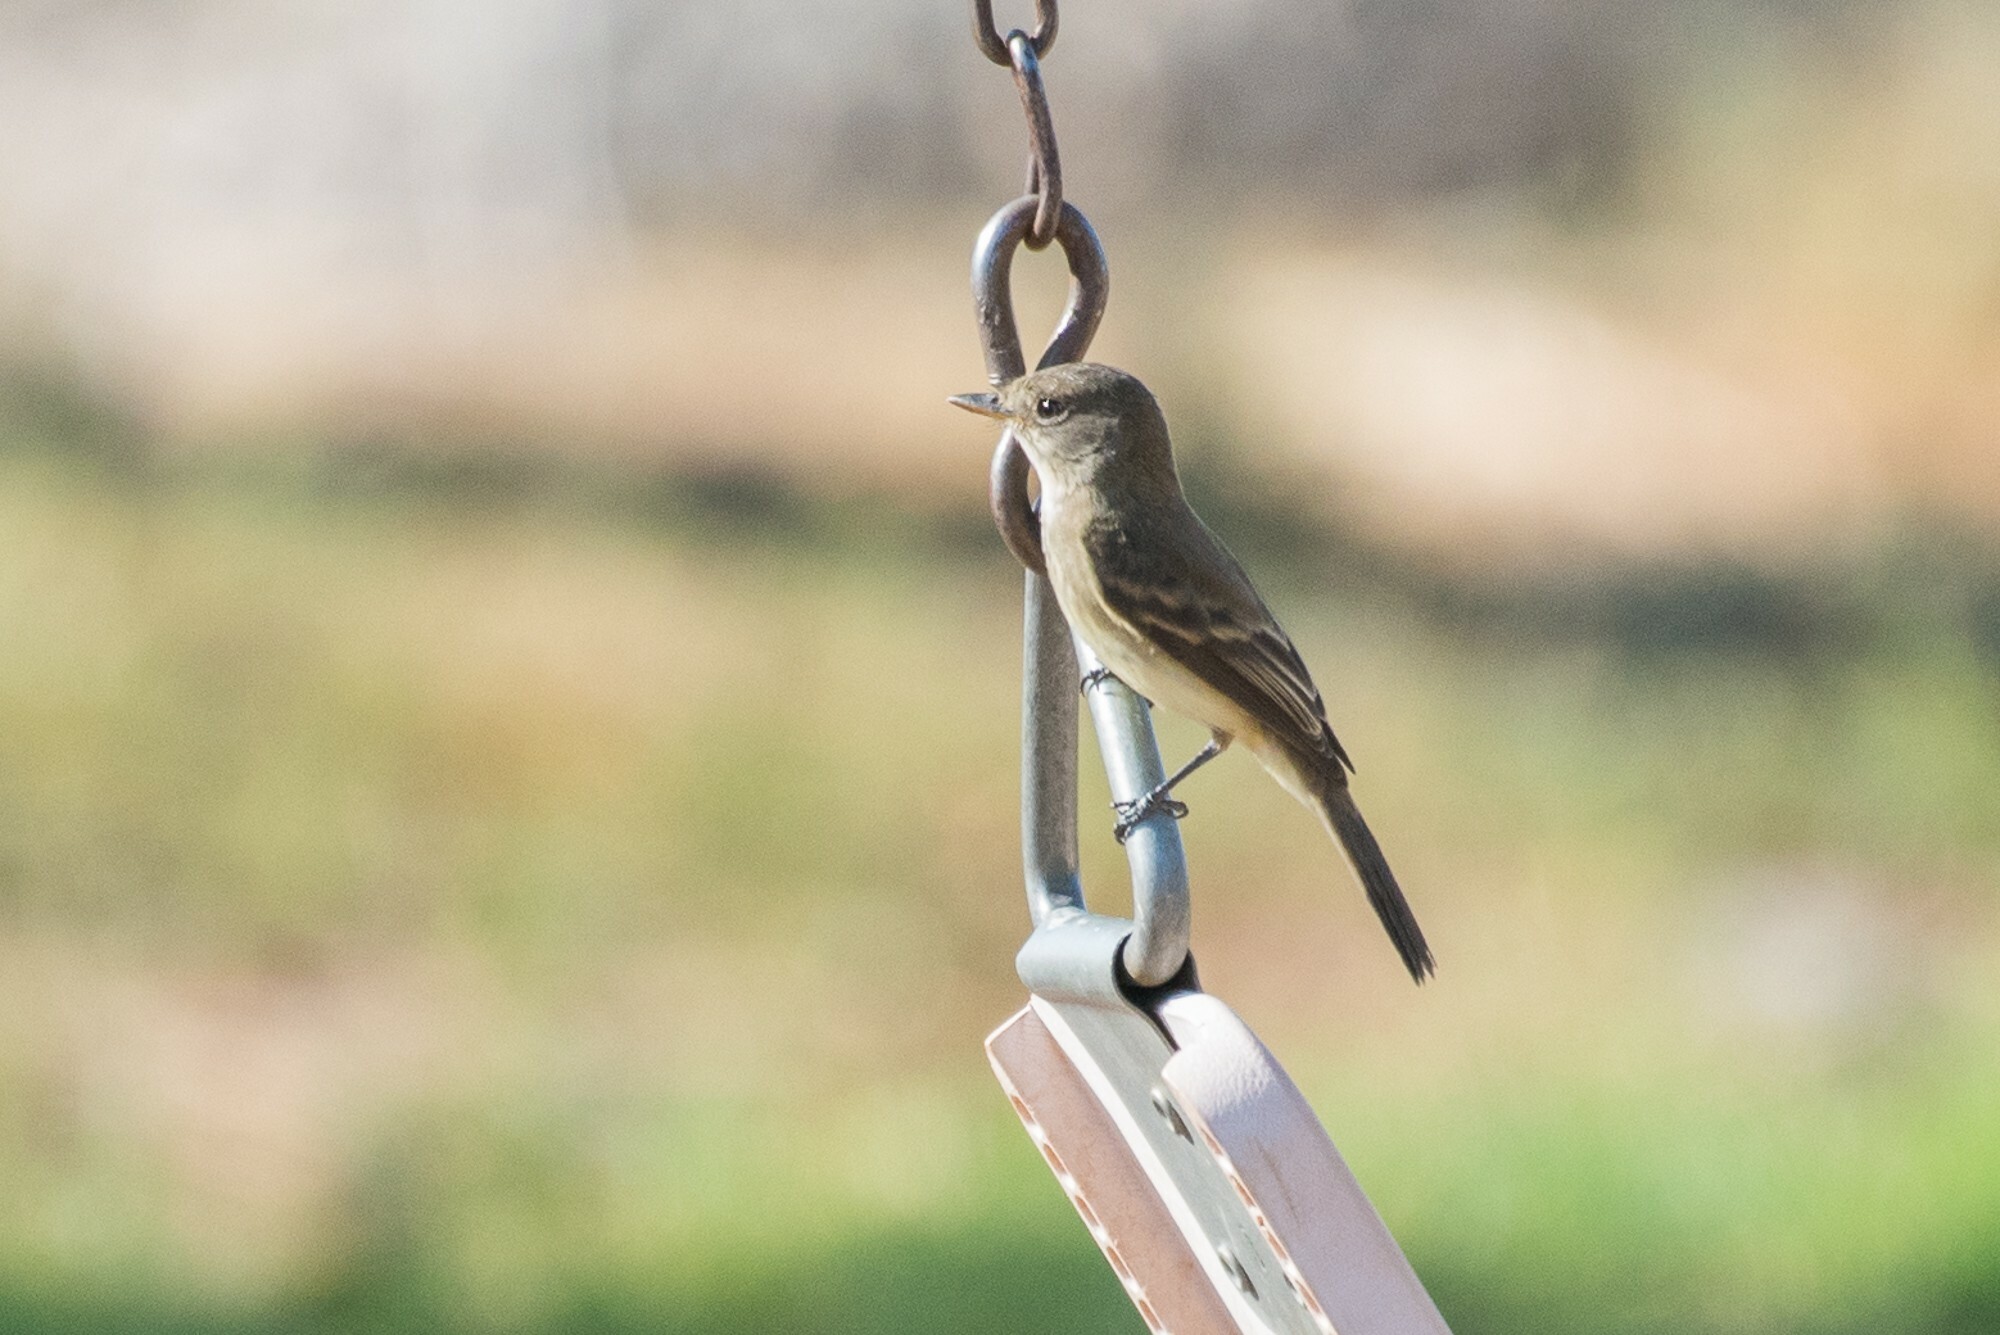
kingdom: Animalia
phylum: Chordata
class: Aves
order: Passeriformes
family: Tyrannidae
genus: Empidonax
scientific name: Empidonax traillii
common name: Willow flycatcher
